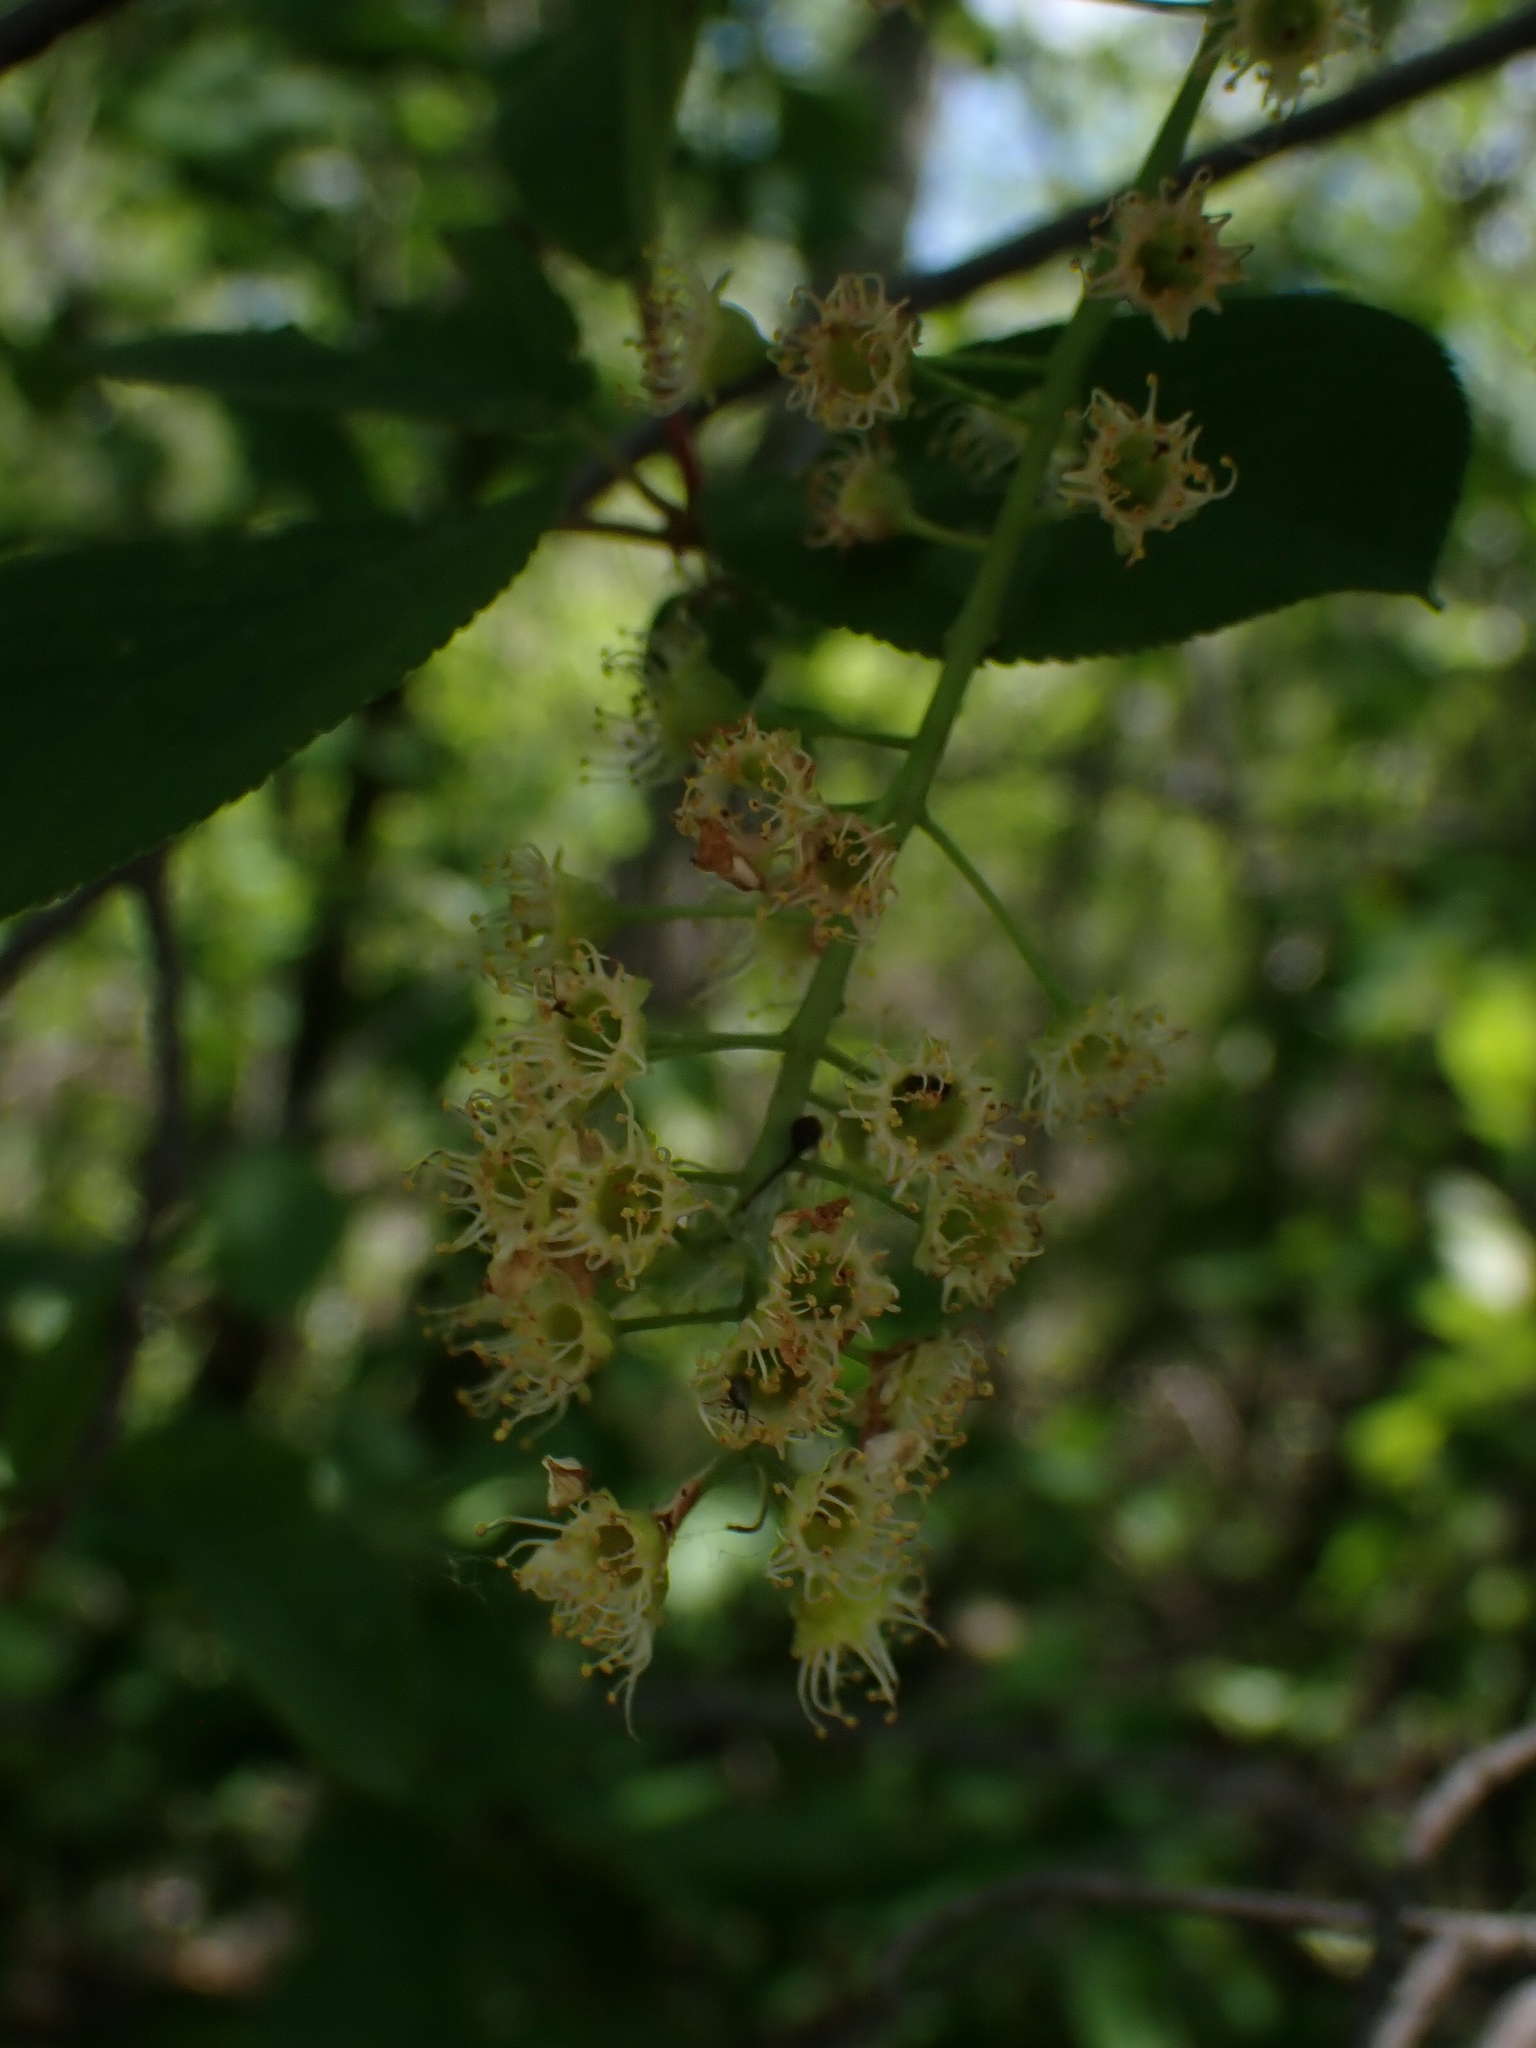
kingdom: Plantae
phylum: Tracheophyta
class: Magnoliopsida
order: Rosales
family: Rosaceae
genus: Prunus
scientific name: Prunus virginiana
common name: Chokecherry
